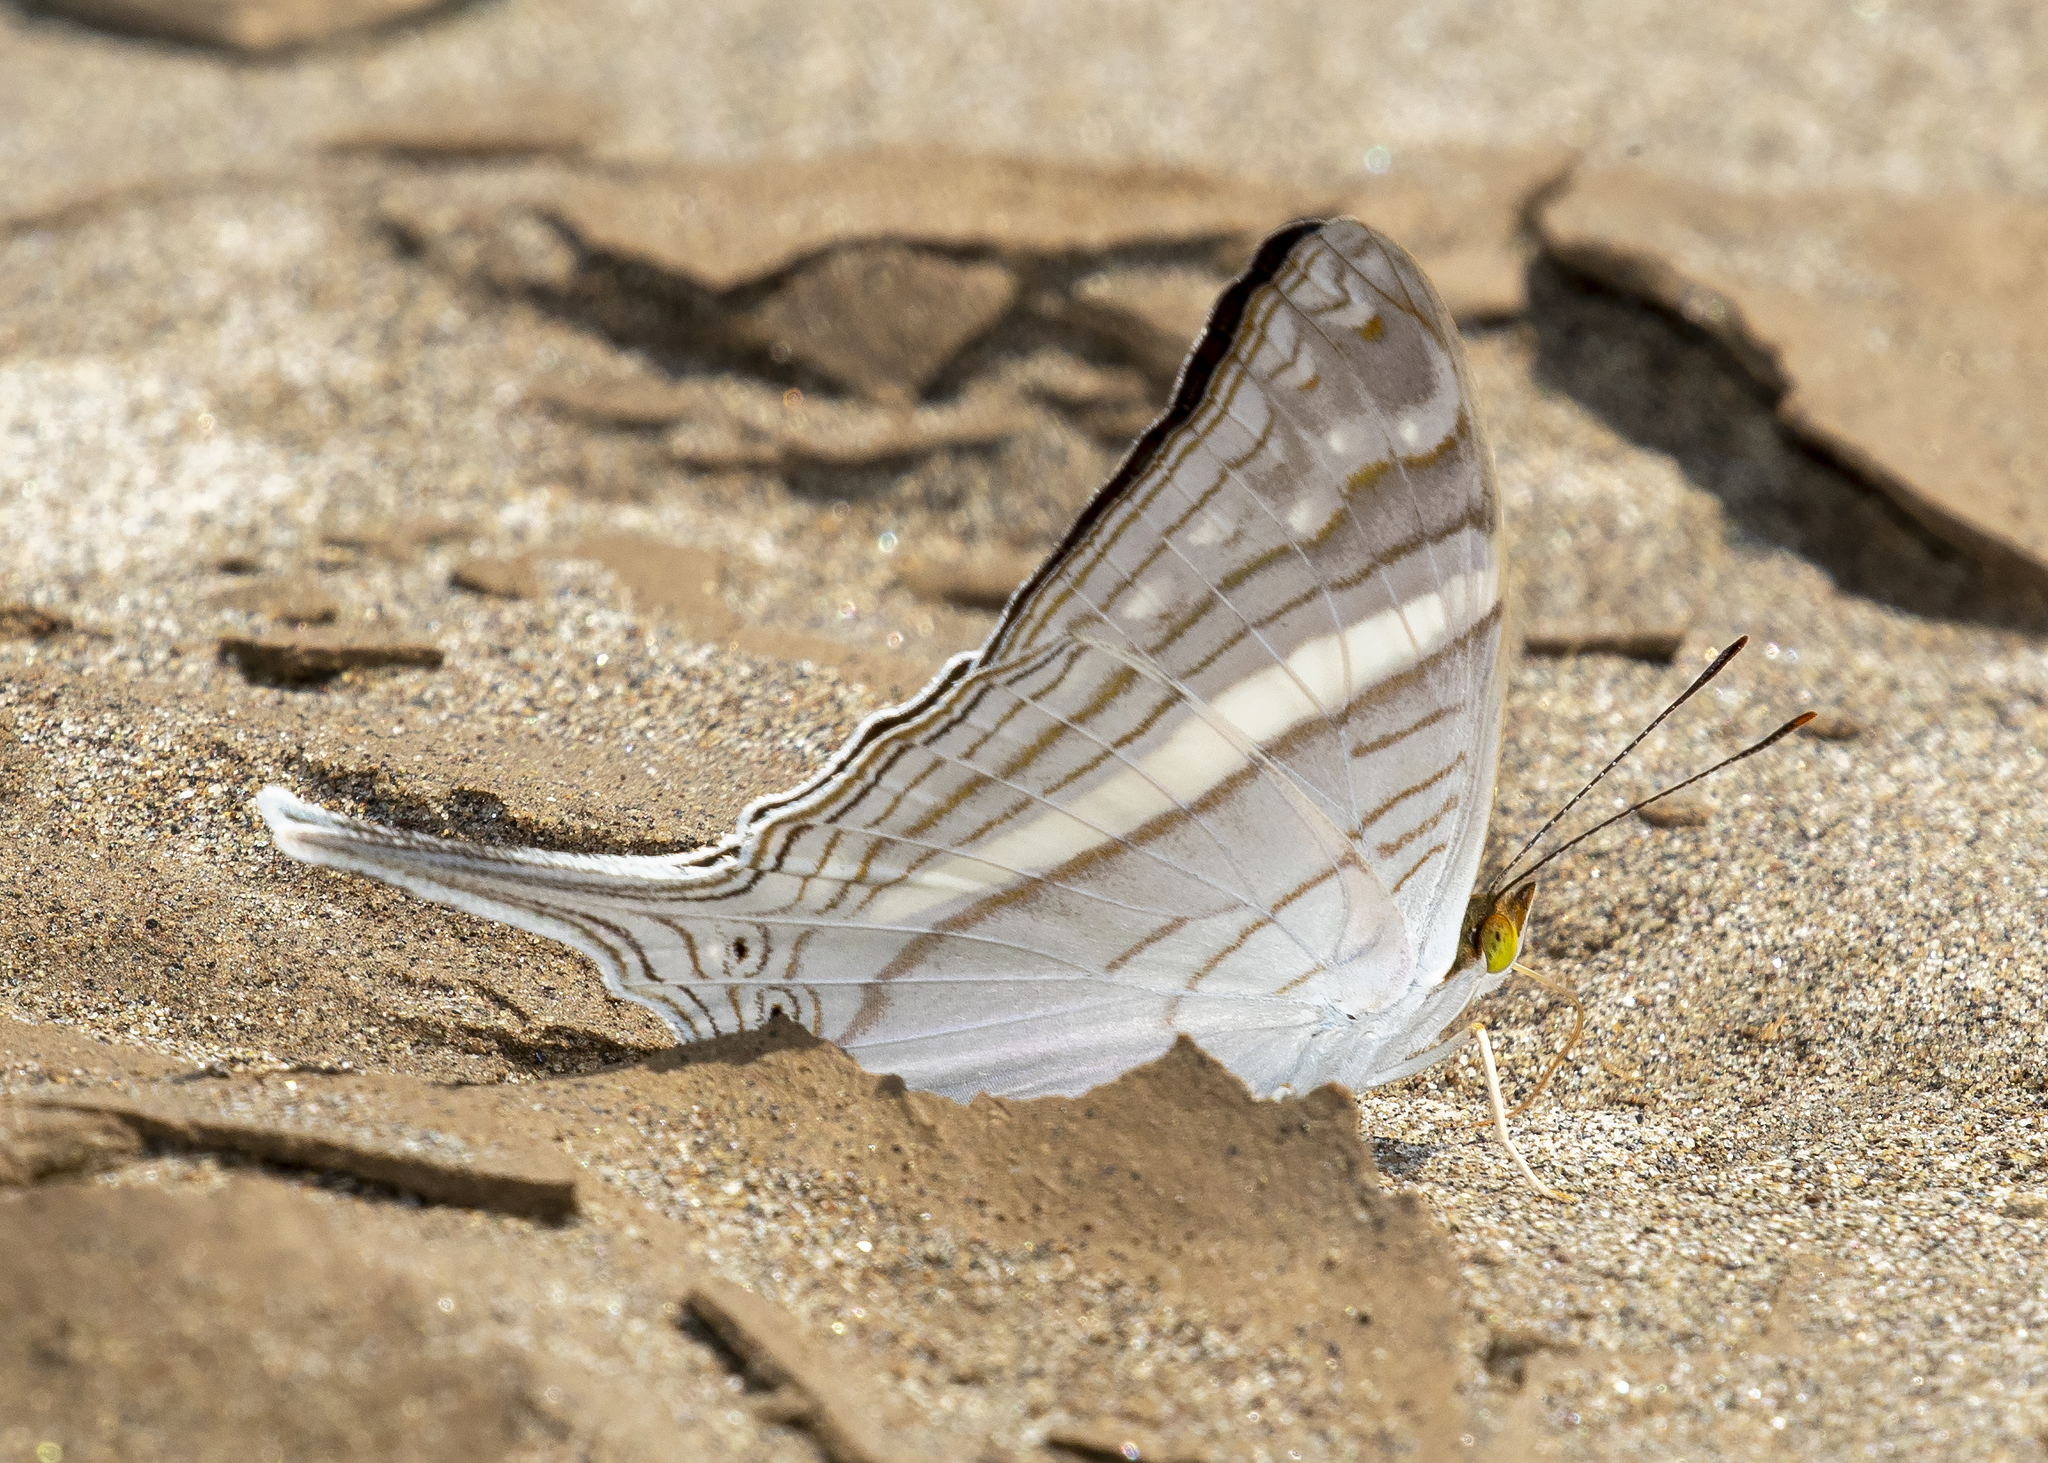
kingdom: Animalia
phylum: Arthropoda
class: Insecta
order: Lepidoptera
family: Nymphalidae
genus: Marpesia
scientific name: Marpesia crethon
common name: Crethon daggerwing
